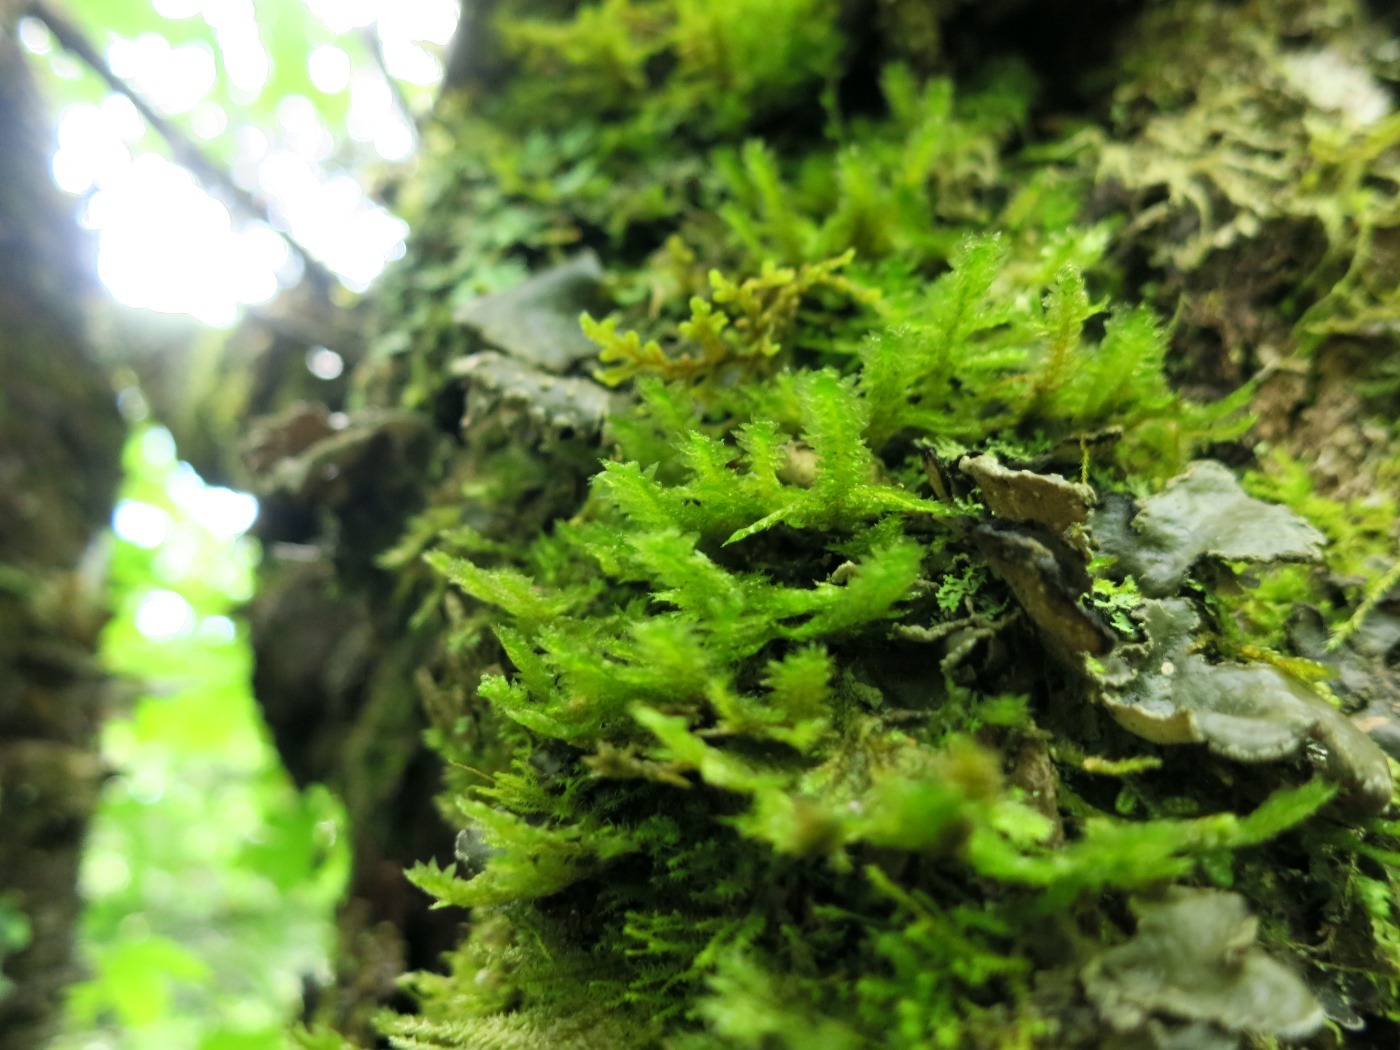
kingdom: Plantae
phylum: Bryophyta
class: Bryopsida
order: Hypnales
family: Neckeraceae
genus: Neckera
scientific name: Neckera pennata
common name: Feathery neckera
